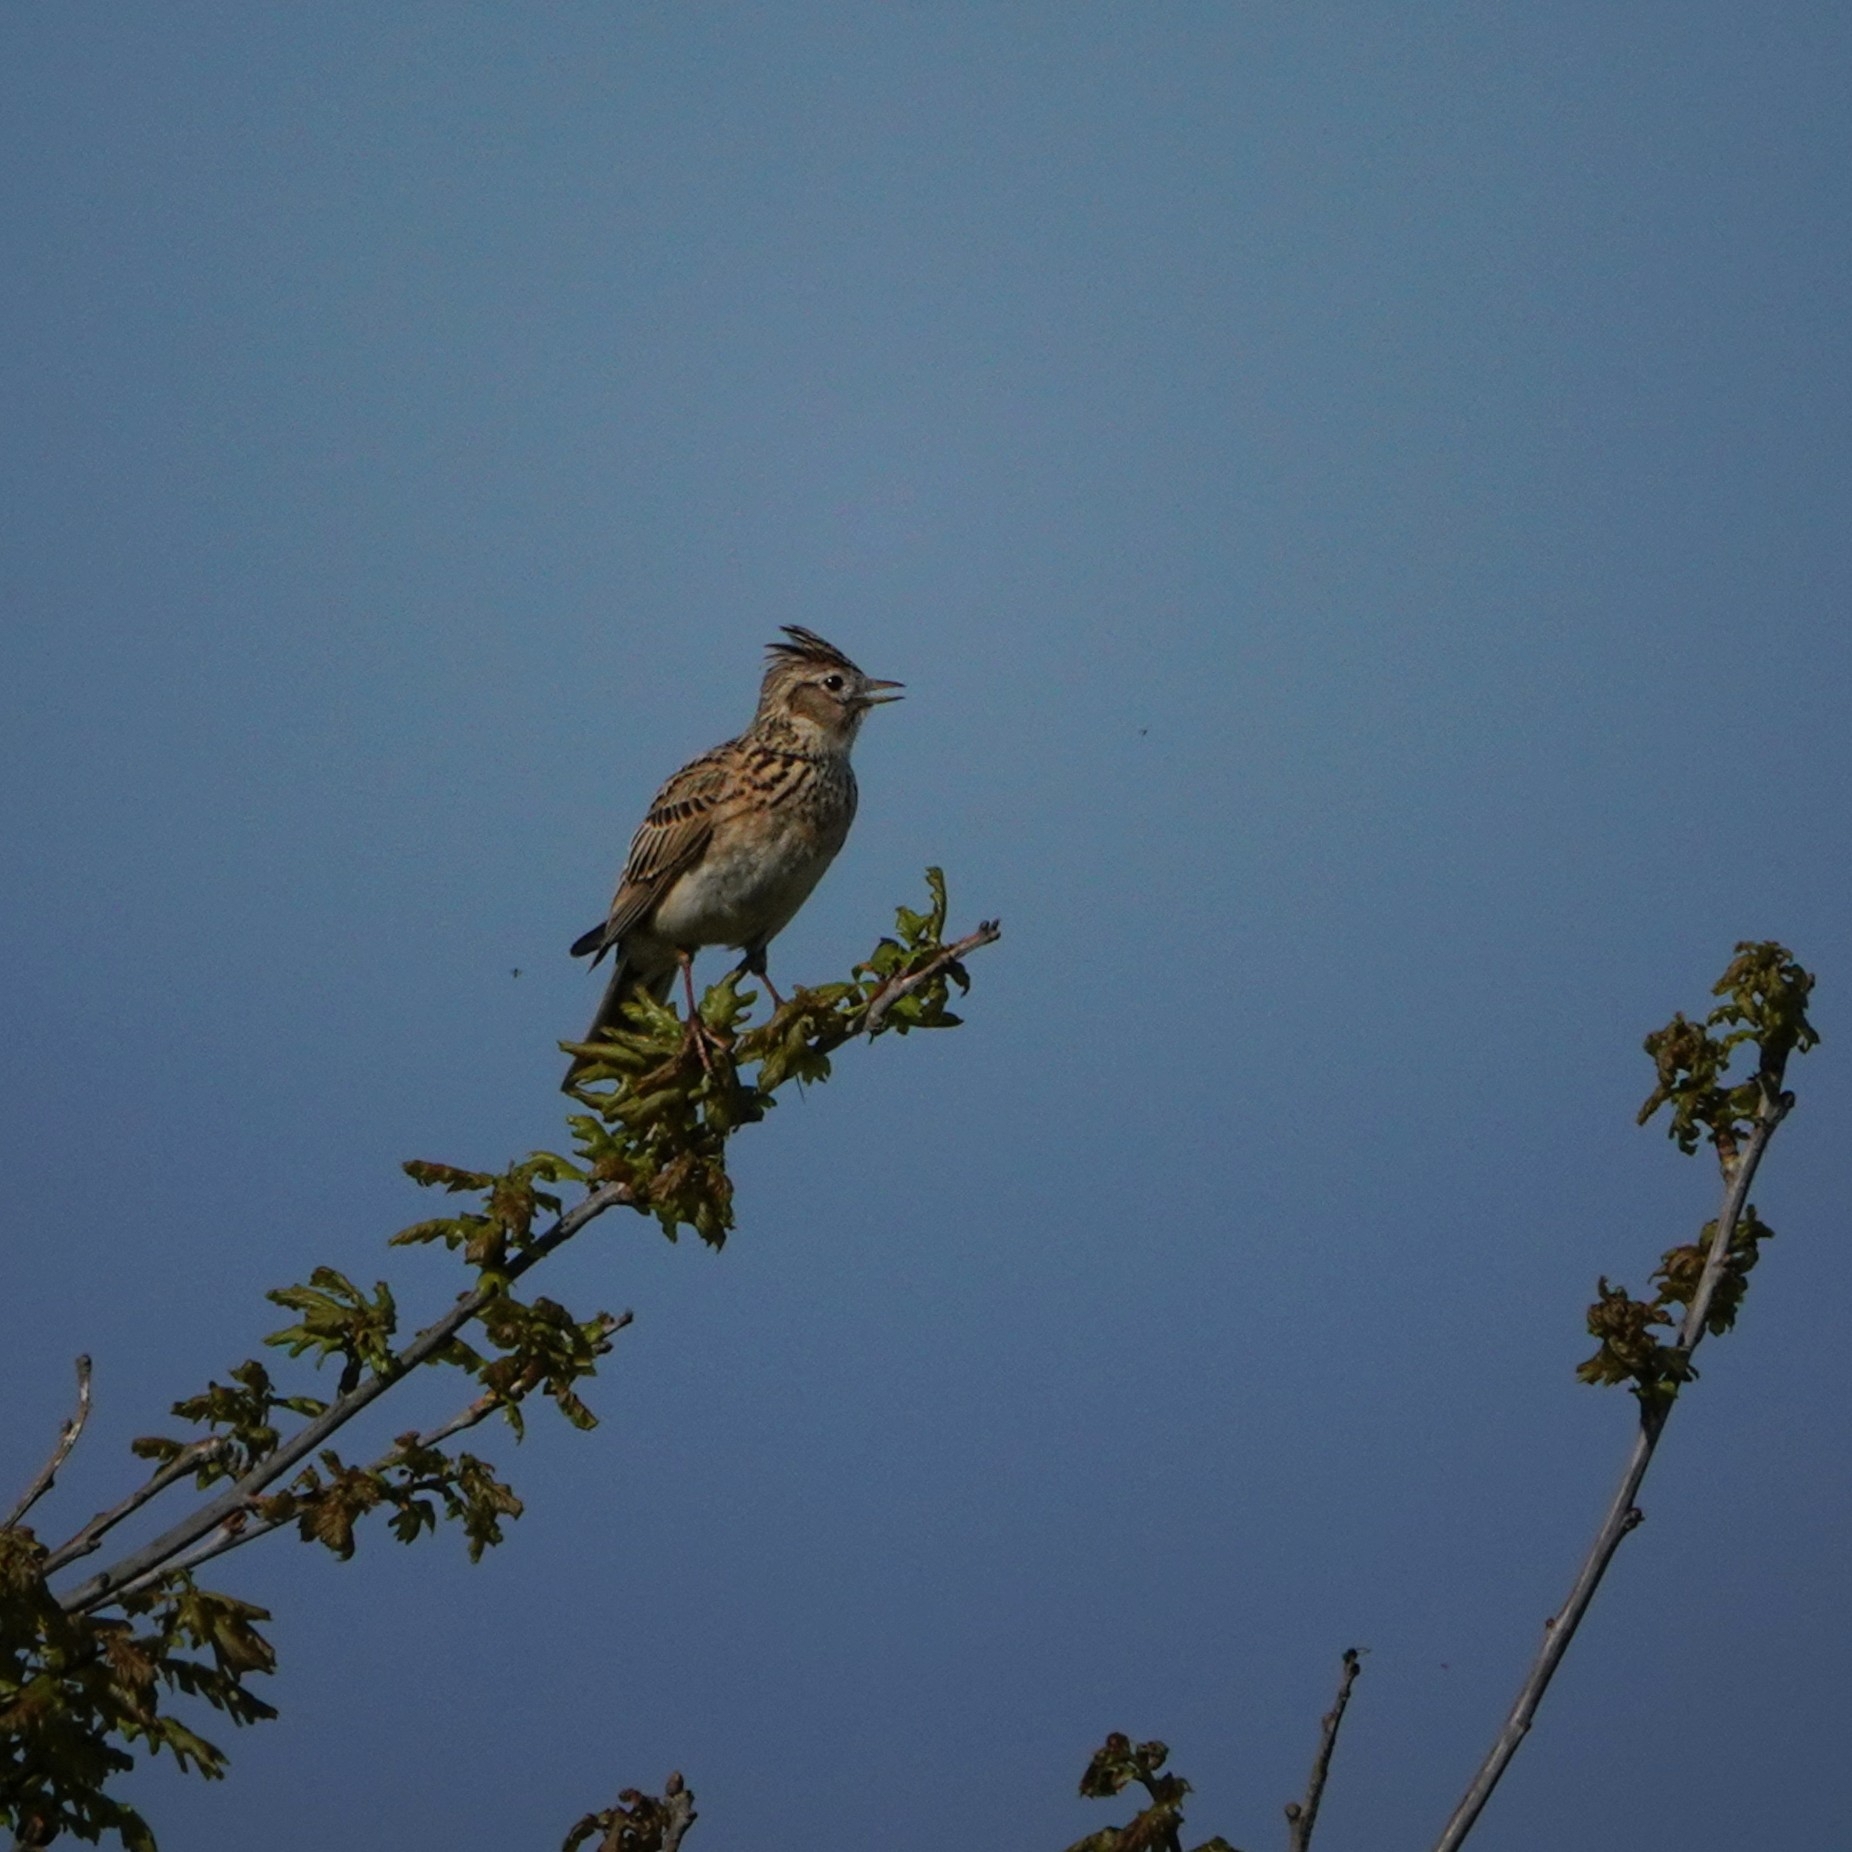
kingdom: Animalia
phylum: Chordata
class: Aves
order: Passeriformes
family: Alaudidae
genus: Alauda
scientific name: Alauda arvensis
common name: Eurasian skylark
